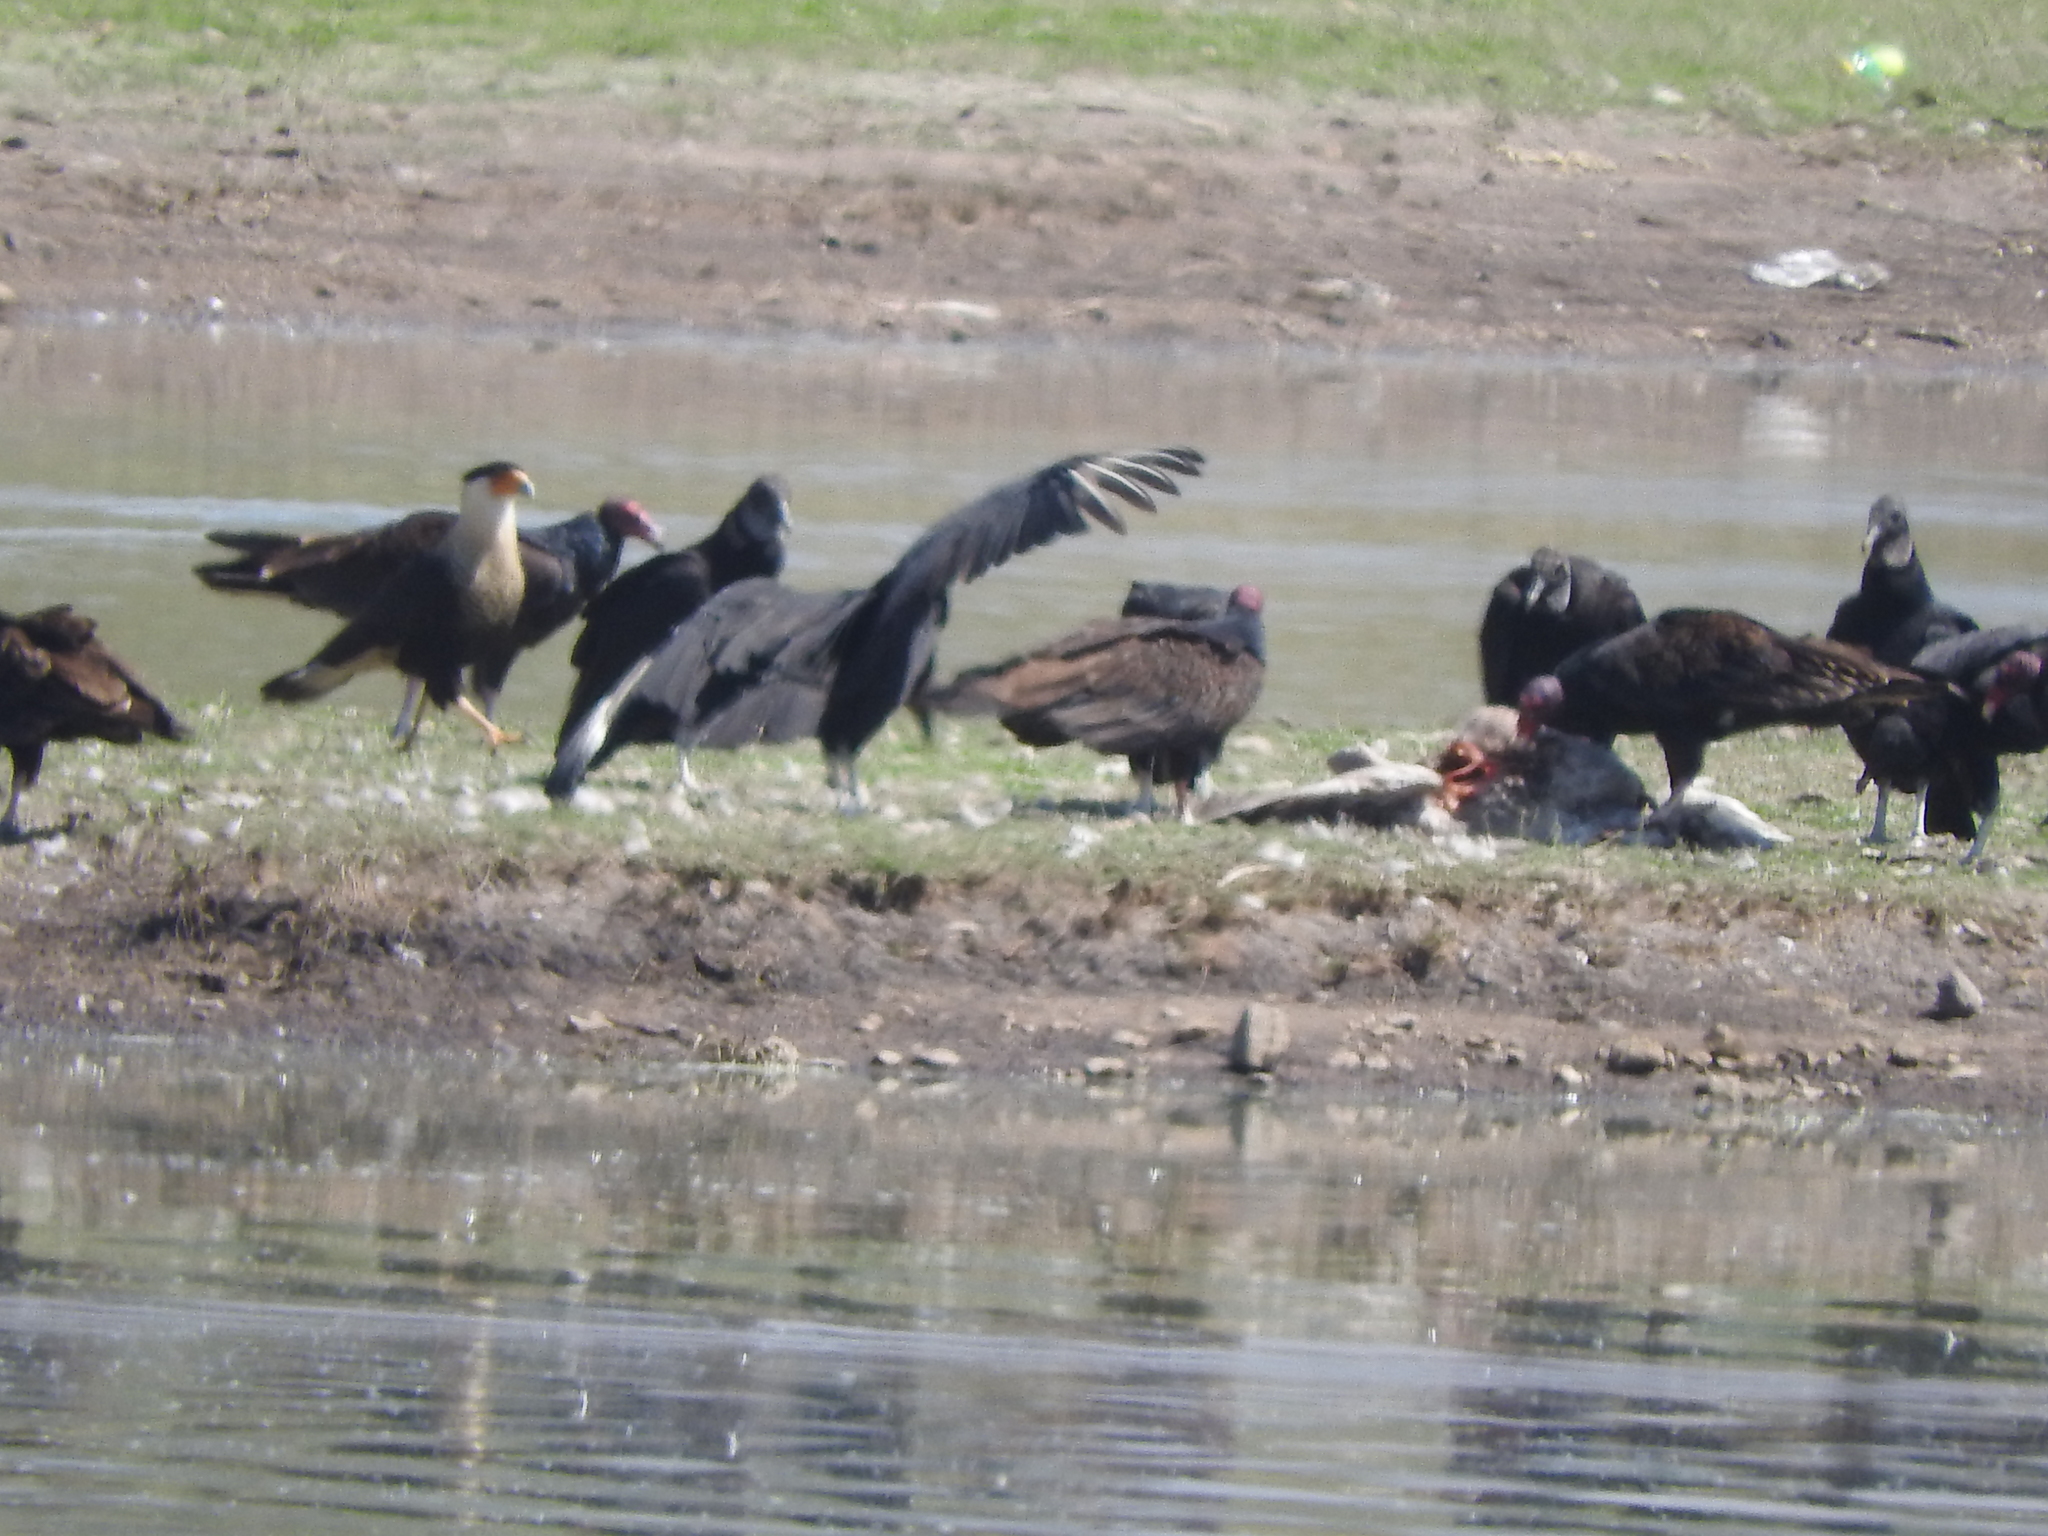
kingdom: Animalia
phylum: Chordata
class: Aves
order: Falconiformes
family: Falconidae
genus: Caracara
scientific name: Caracara plancus
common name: Southern caracara
